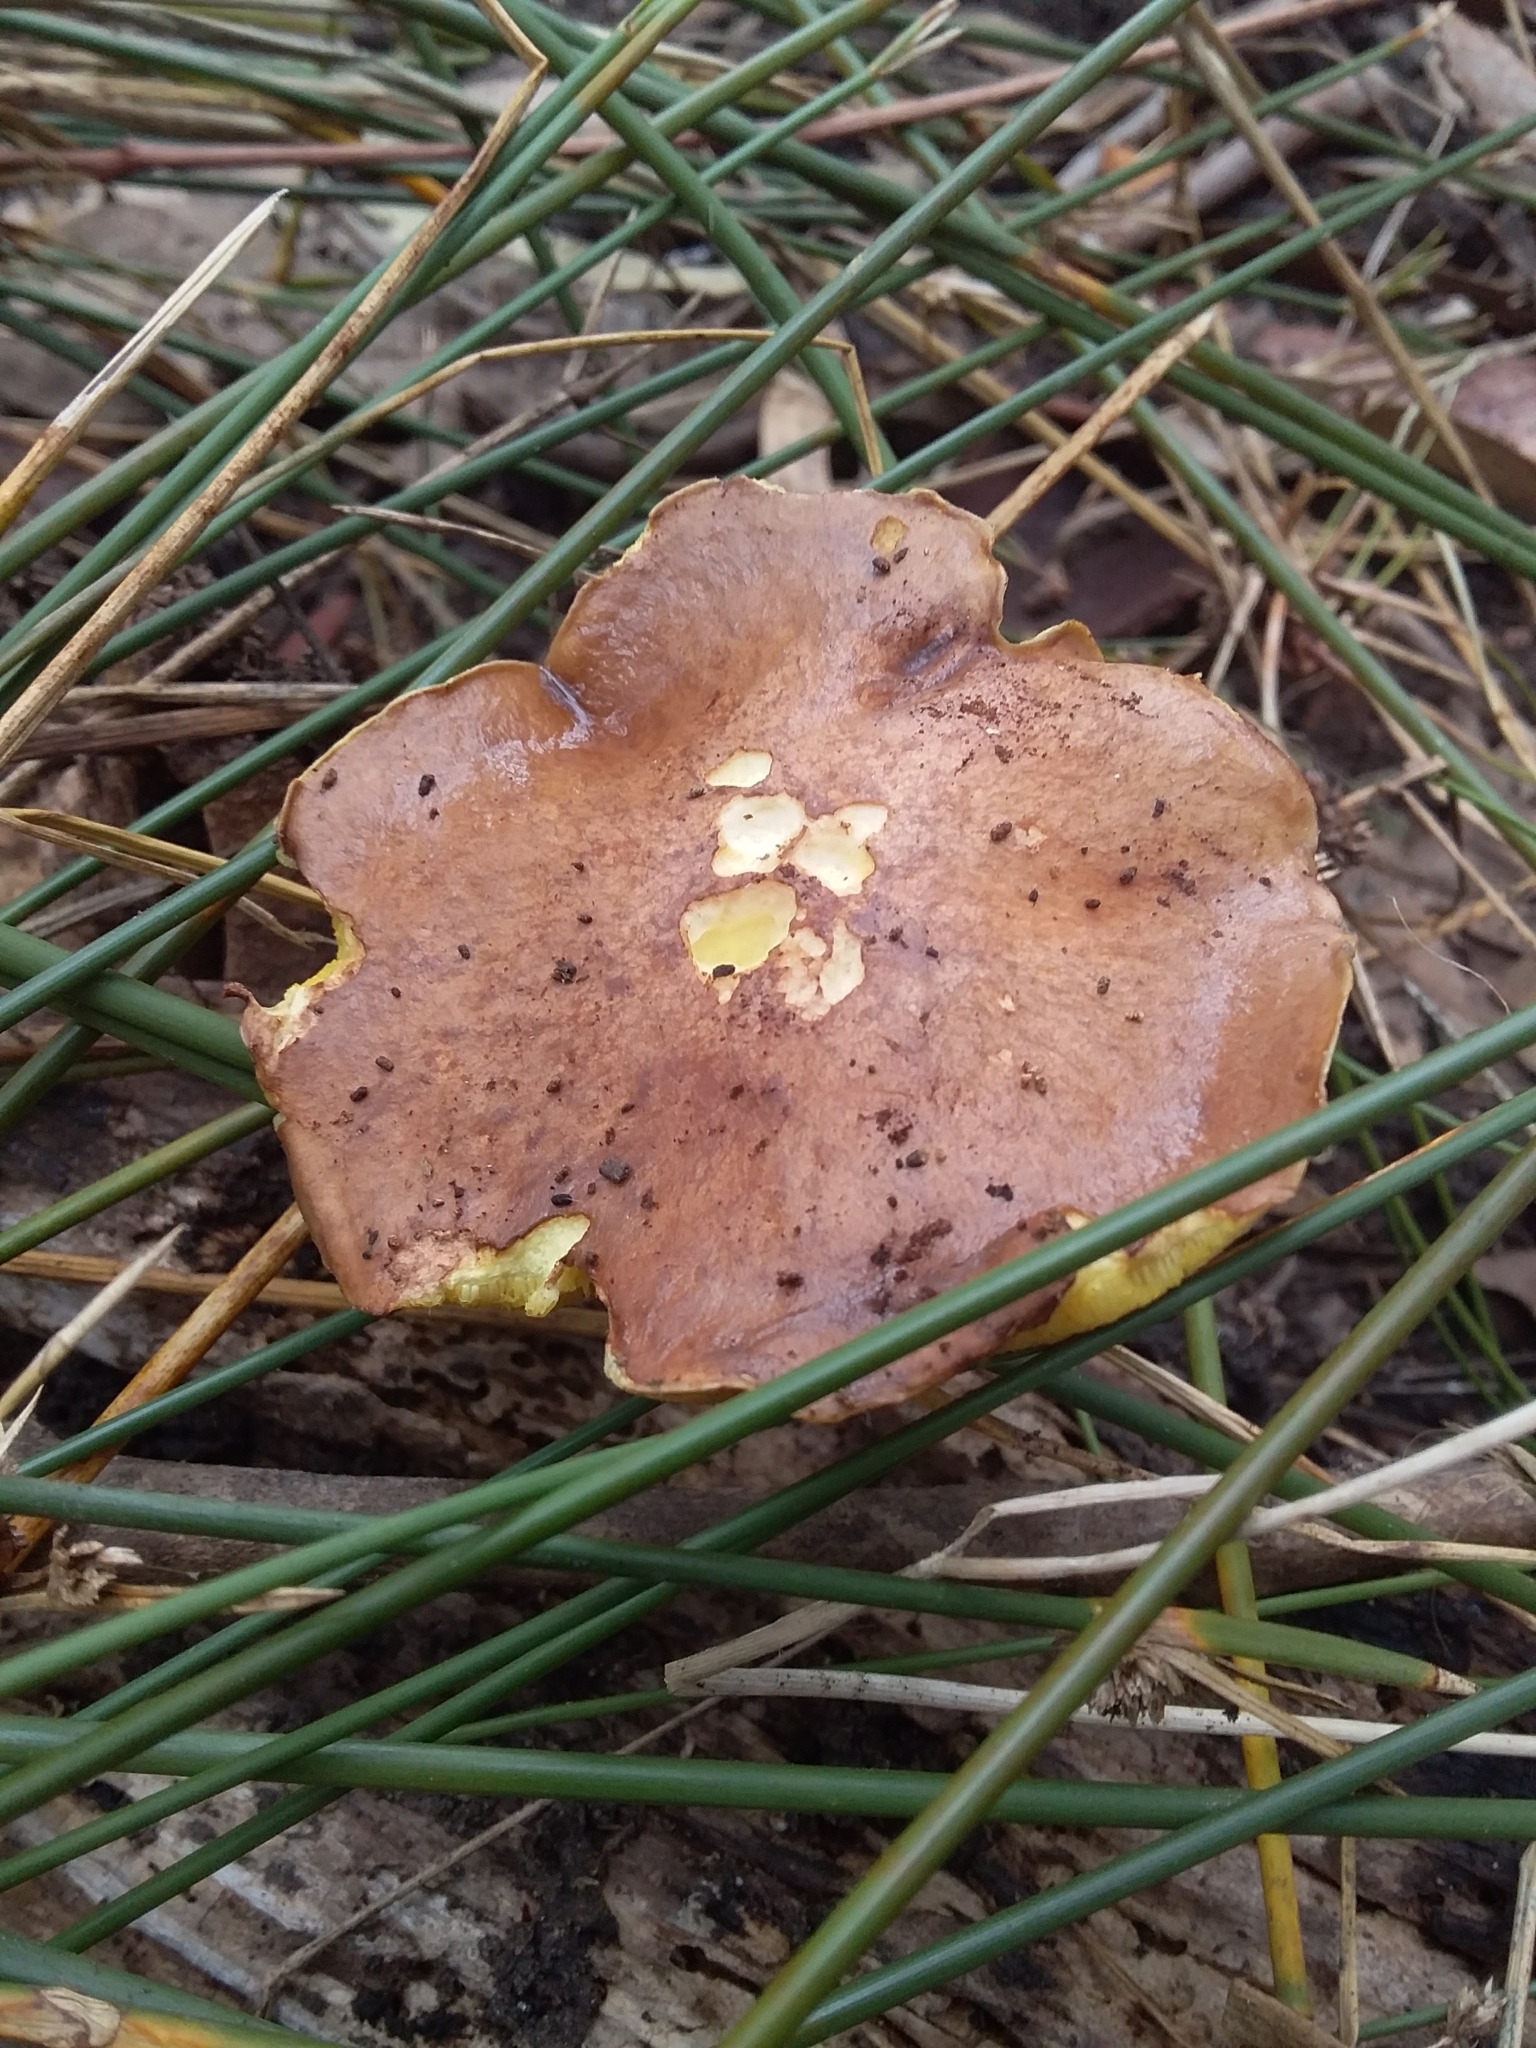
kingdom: Fungi
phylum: Basidiomycota
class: Agaricomycetes
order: Boletales
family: Suillaceae
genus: Suillus
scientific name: Suillus granulatus
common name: Weeping bolete
